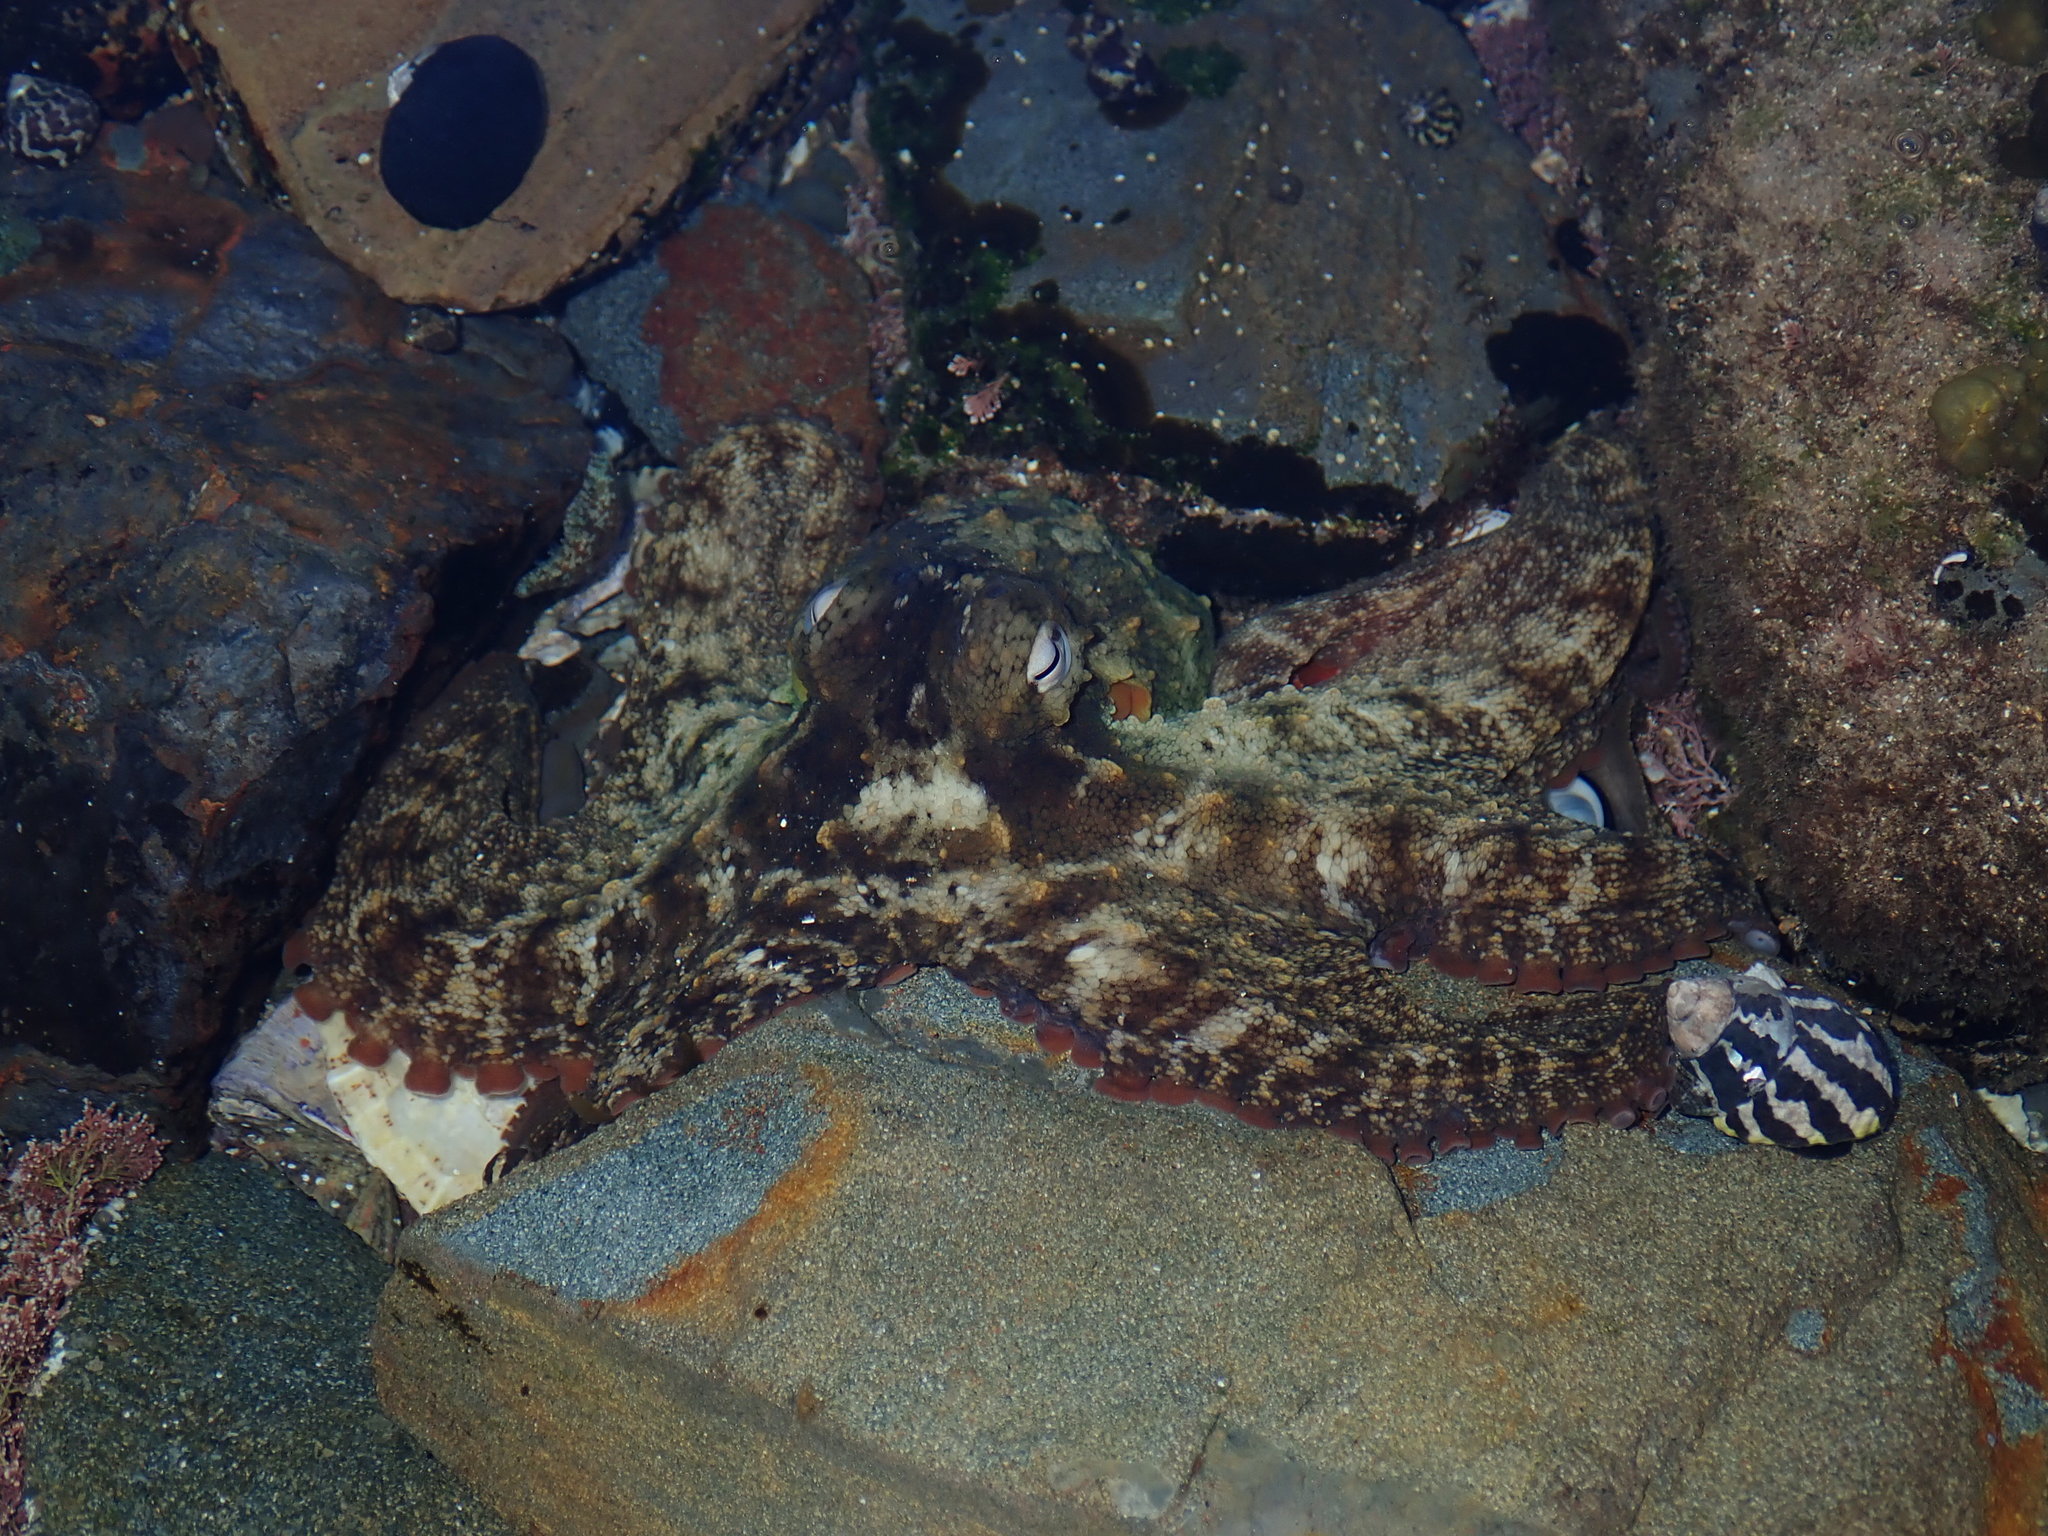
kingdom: Animalia
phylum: Mollusca
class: Cephalopoda
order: Octopoda
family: Octopodidae
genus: Octopus
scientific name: Octopus tetricus
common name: Sydney octopus
